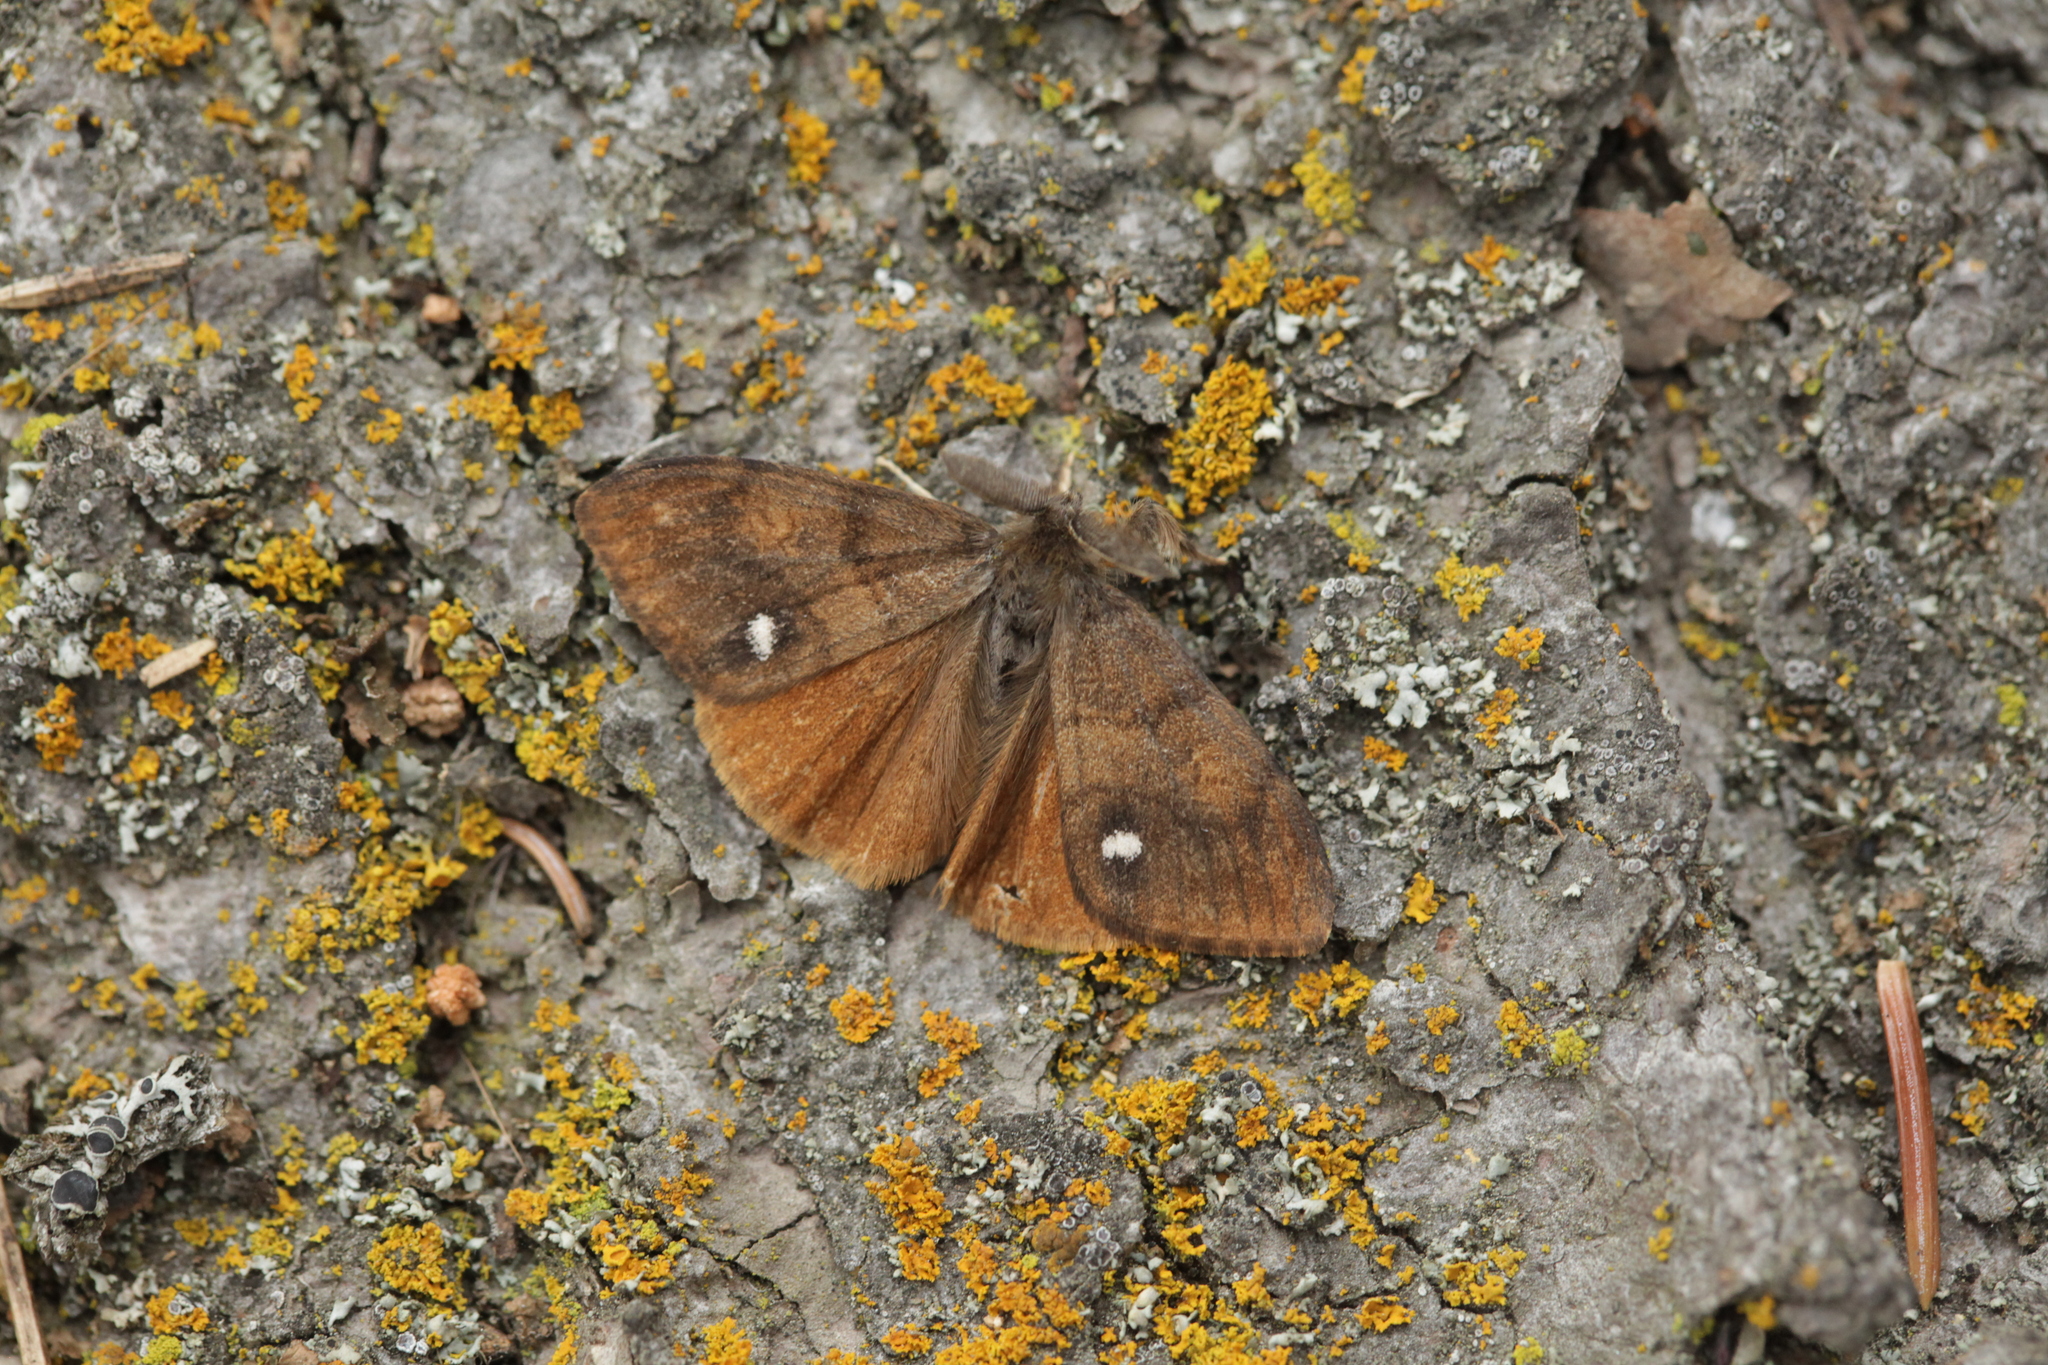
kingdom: Animalia
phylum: Arthropoda
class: Insecta
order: Lepidoptera
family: Erebidae
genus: Orgyia
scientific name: Orgyia antiqua
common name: Vapourer
